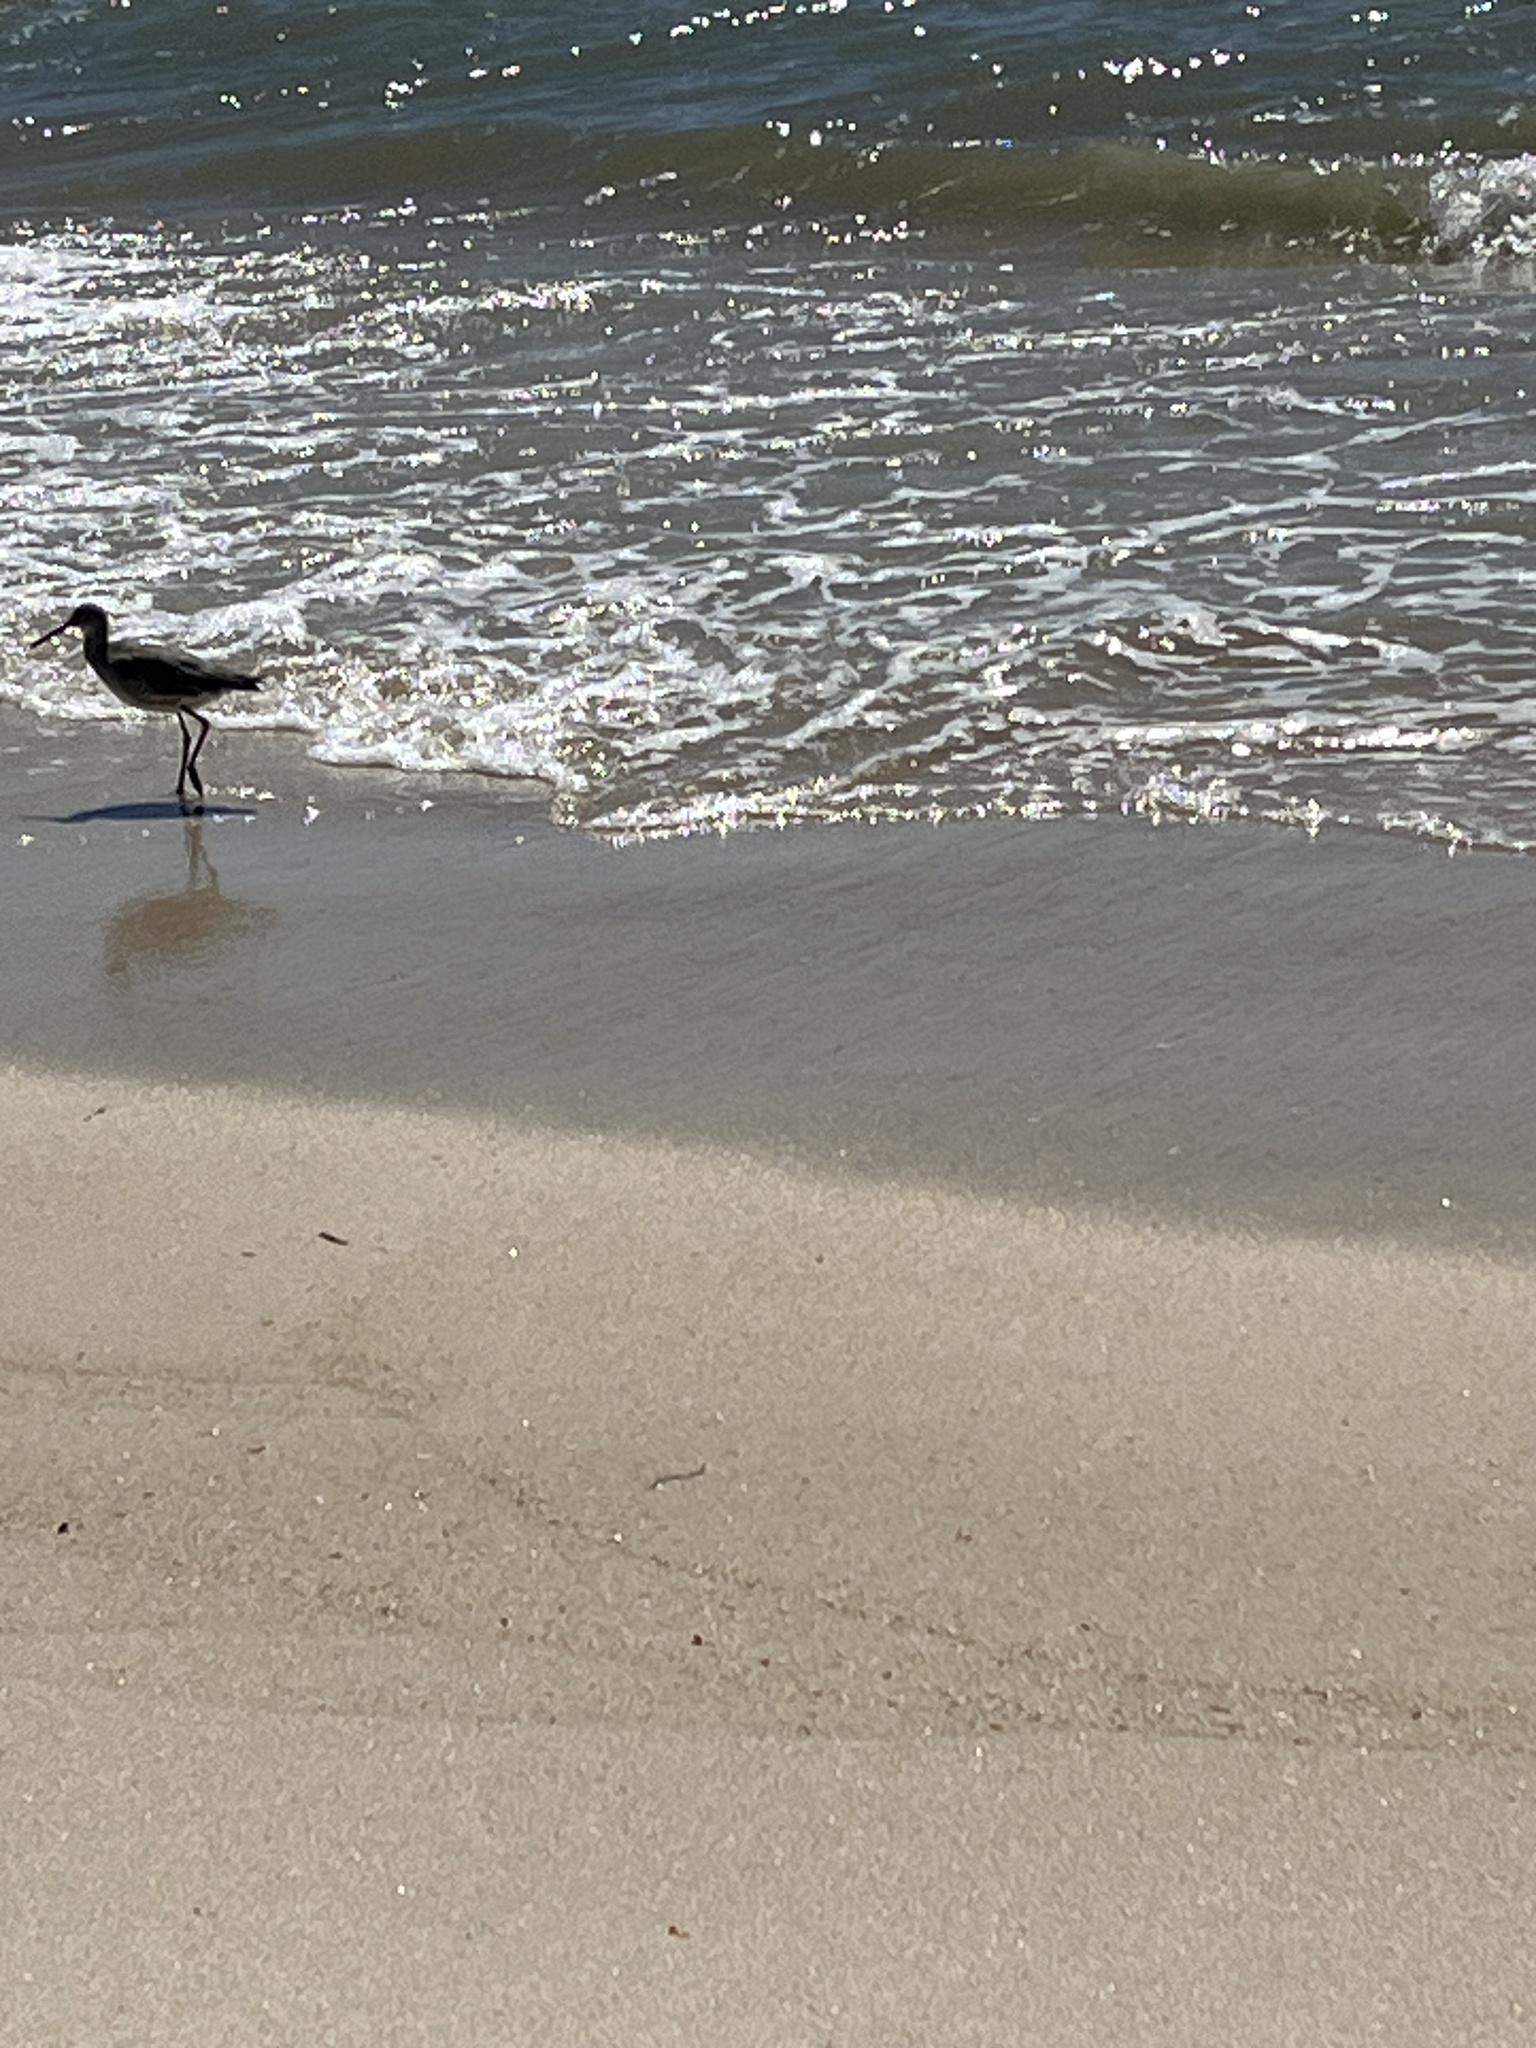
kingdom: Animalia
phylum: Chordata
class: Aves
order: Charadriiformes
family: Scolopacidae
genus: Tringa
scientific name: Tringa semipalmata
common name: Willet
